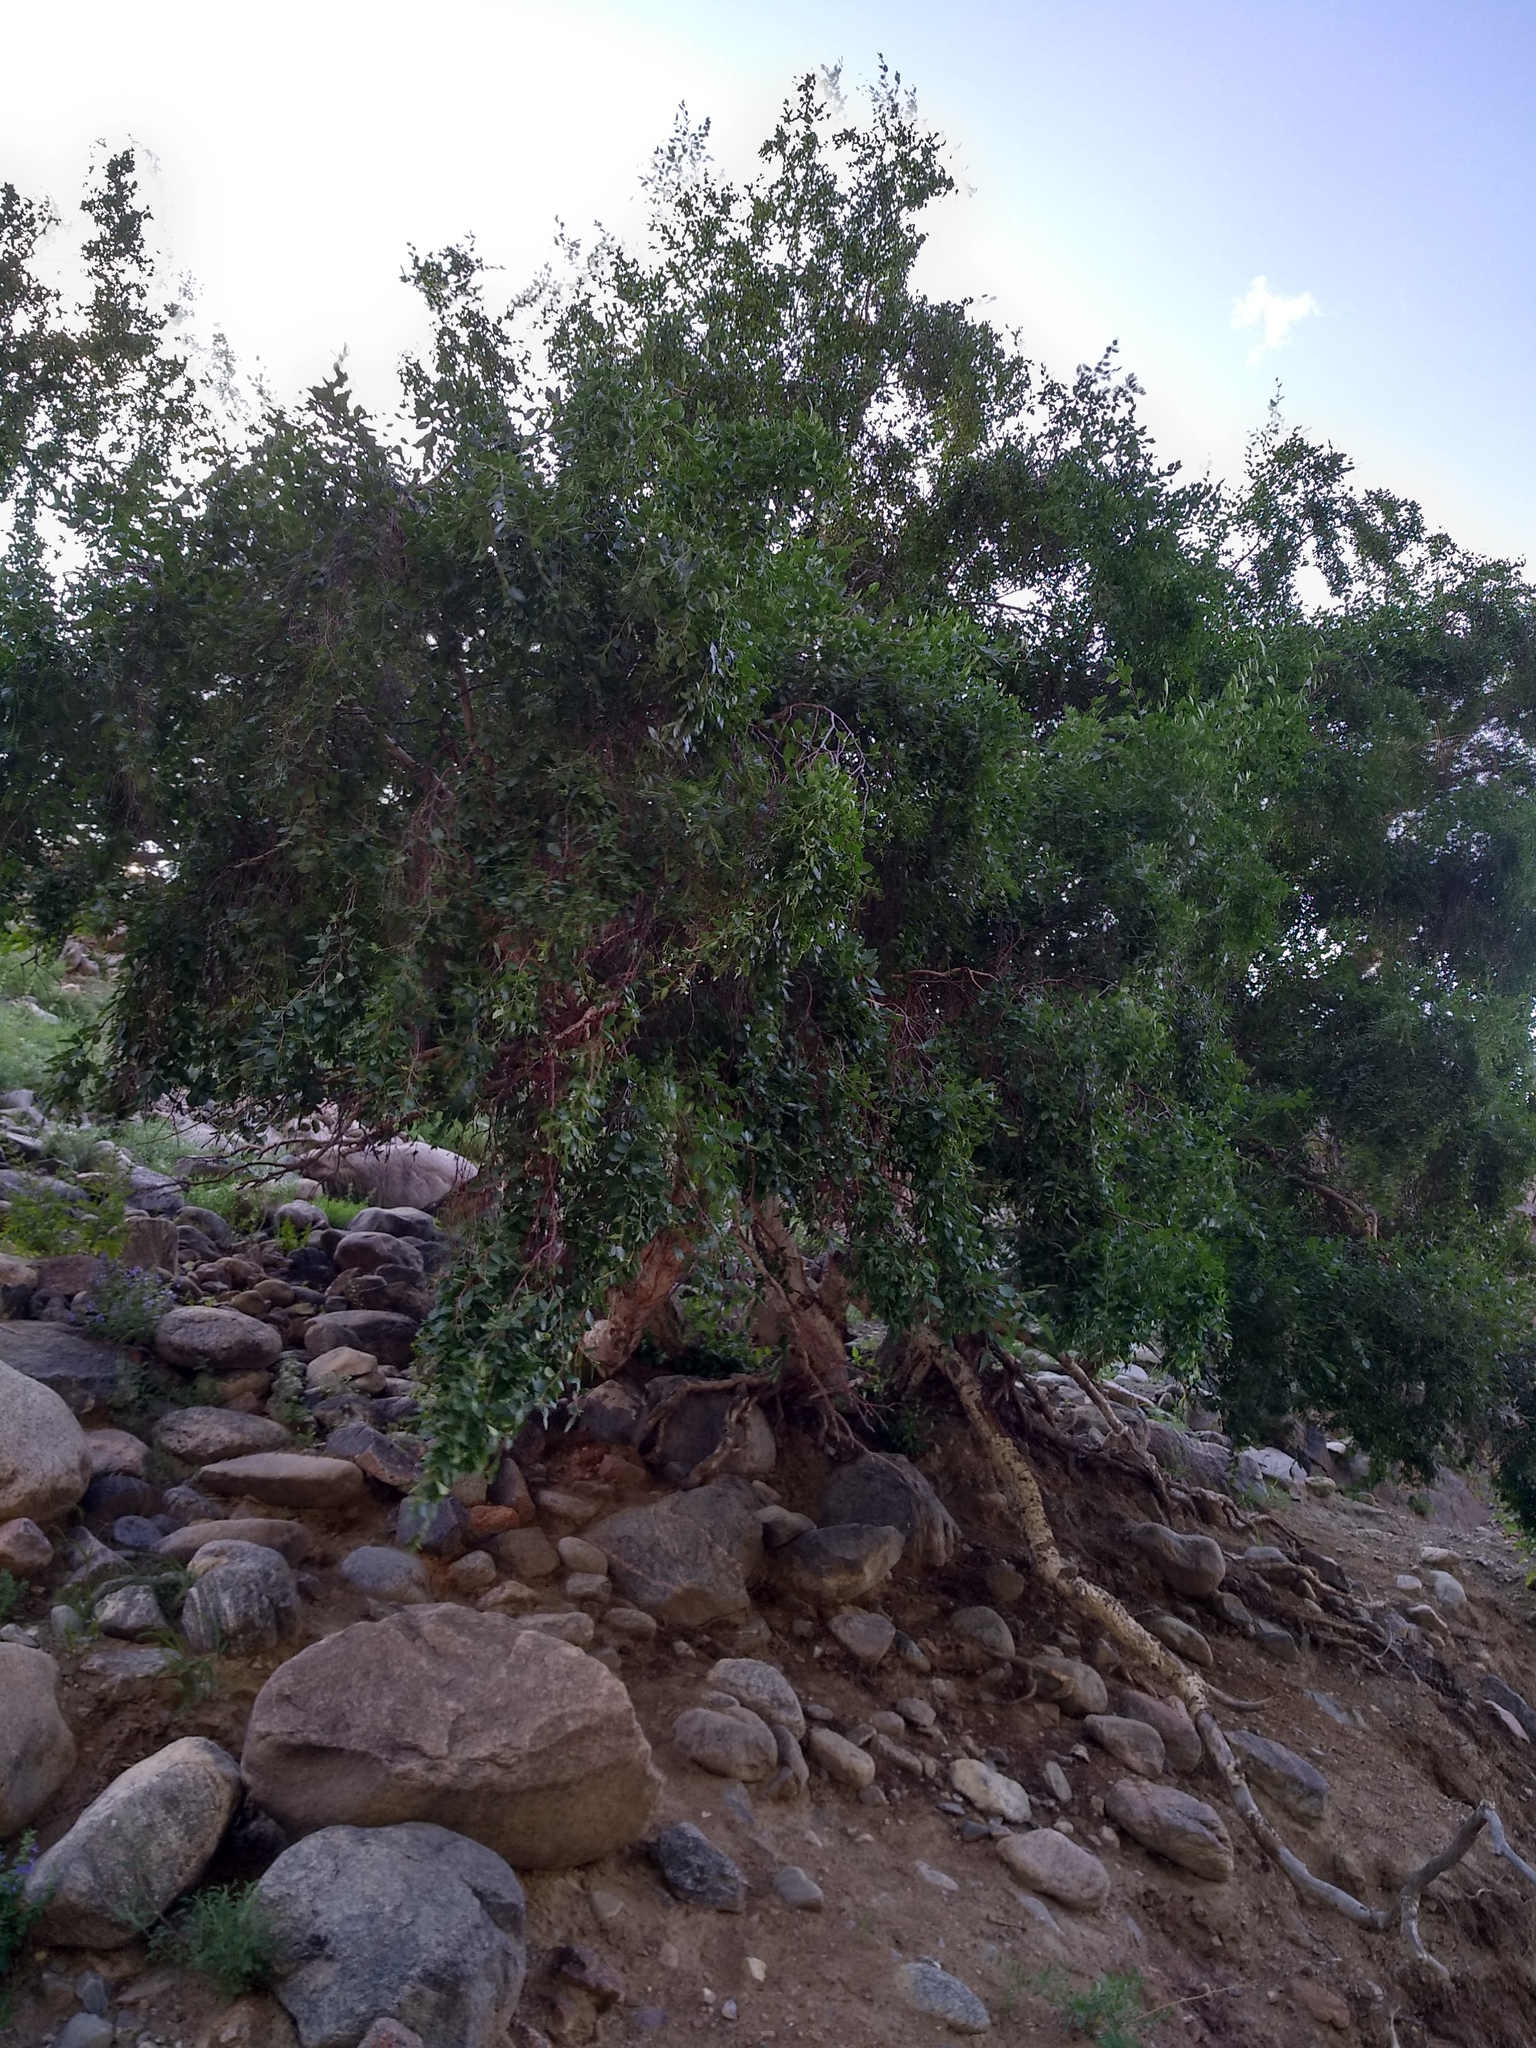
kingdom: Plantae
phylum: Tracheophyta
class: Magnoliopsida
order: Fagales
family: Betulaceae
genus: Betula
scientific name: Betula microphylla
